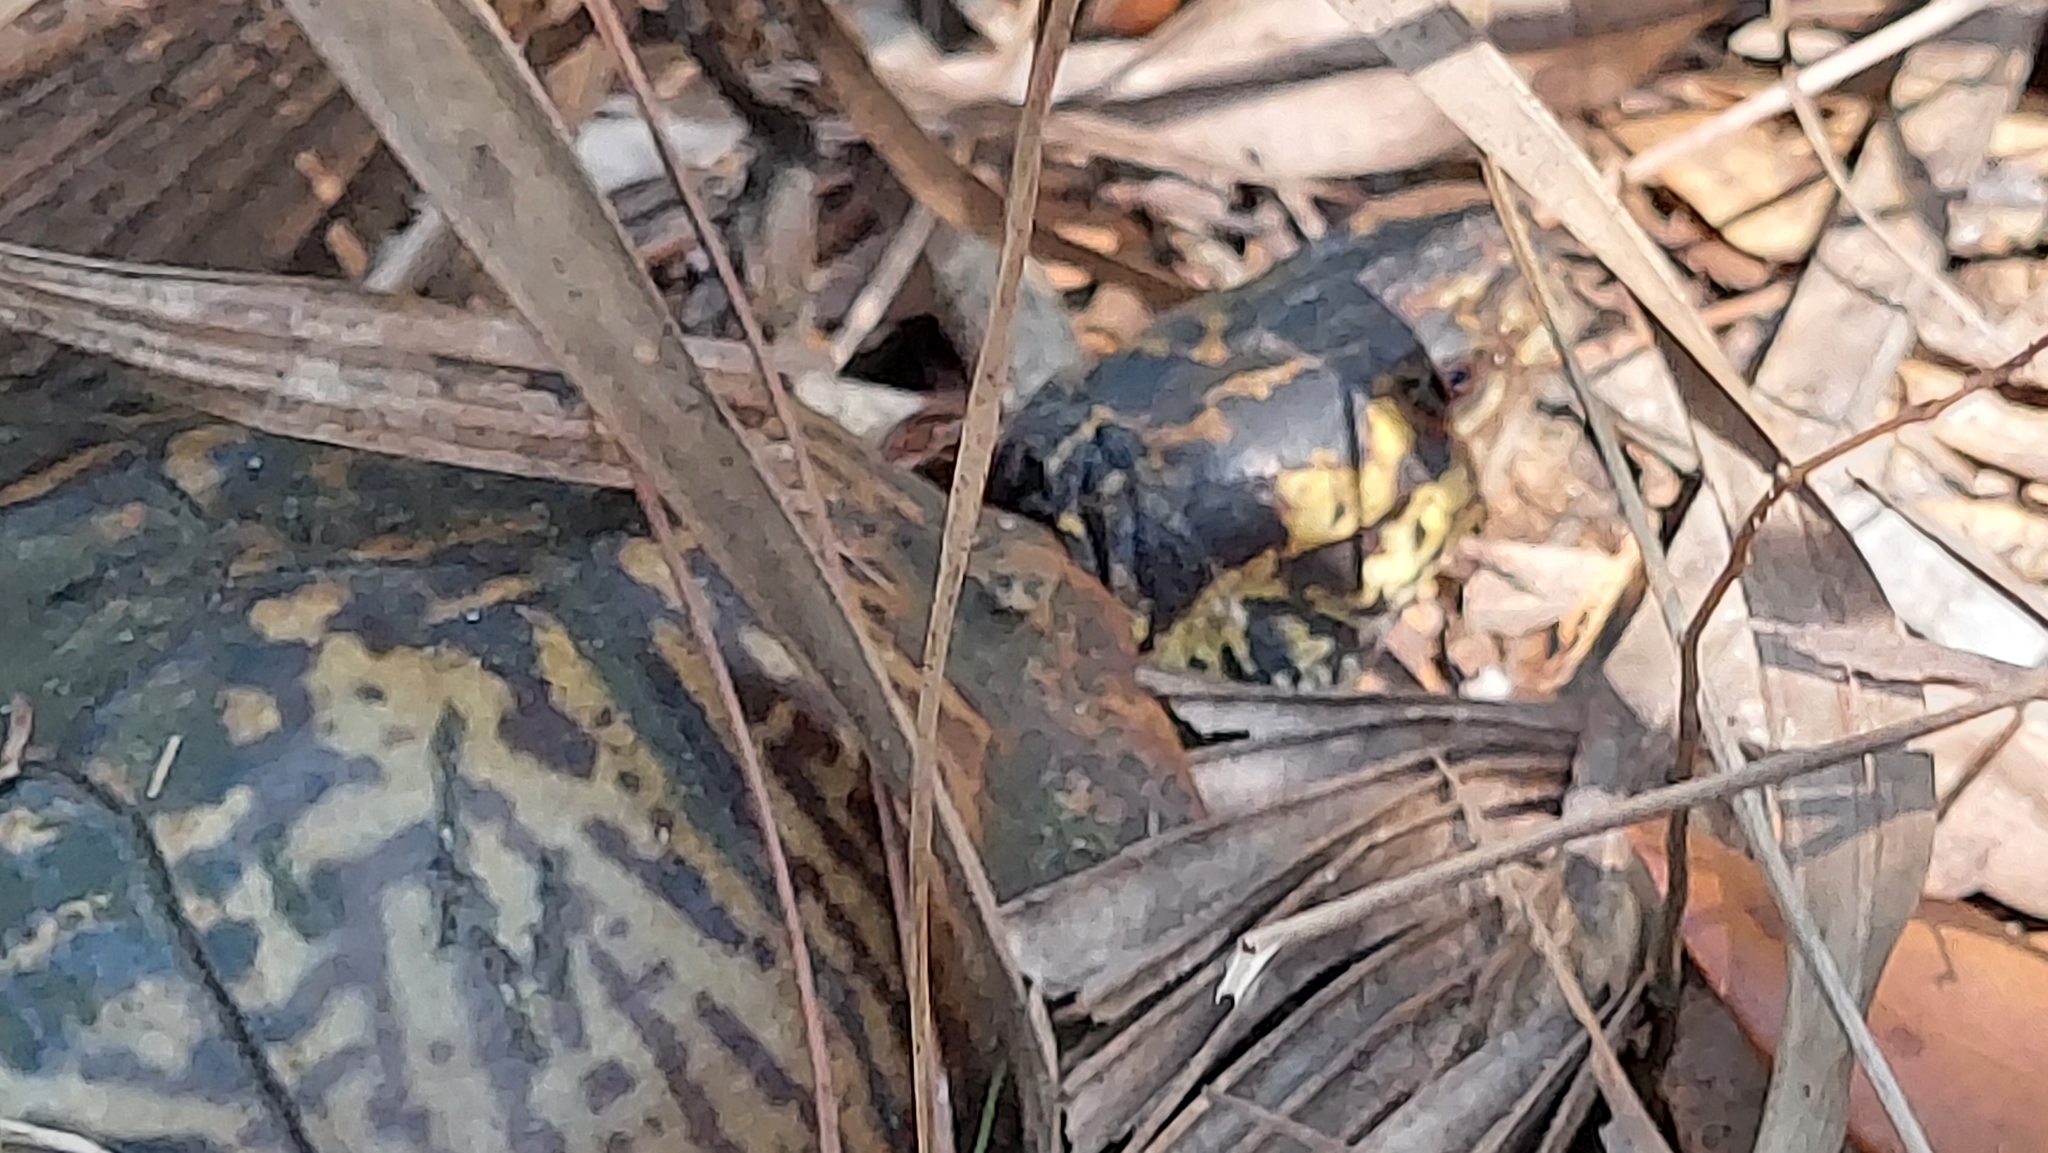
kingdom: Animalia
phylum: Chordata
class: Testudines
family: Emydidae
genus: Terrapene
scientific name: Terrapene carolina
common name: Common box turtle
